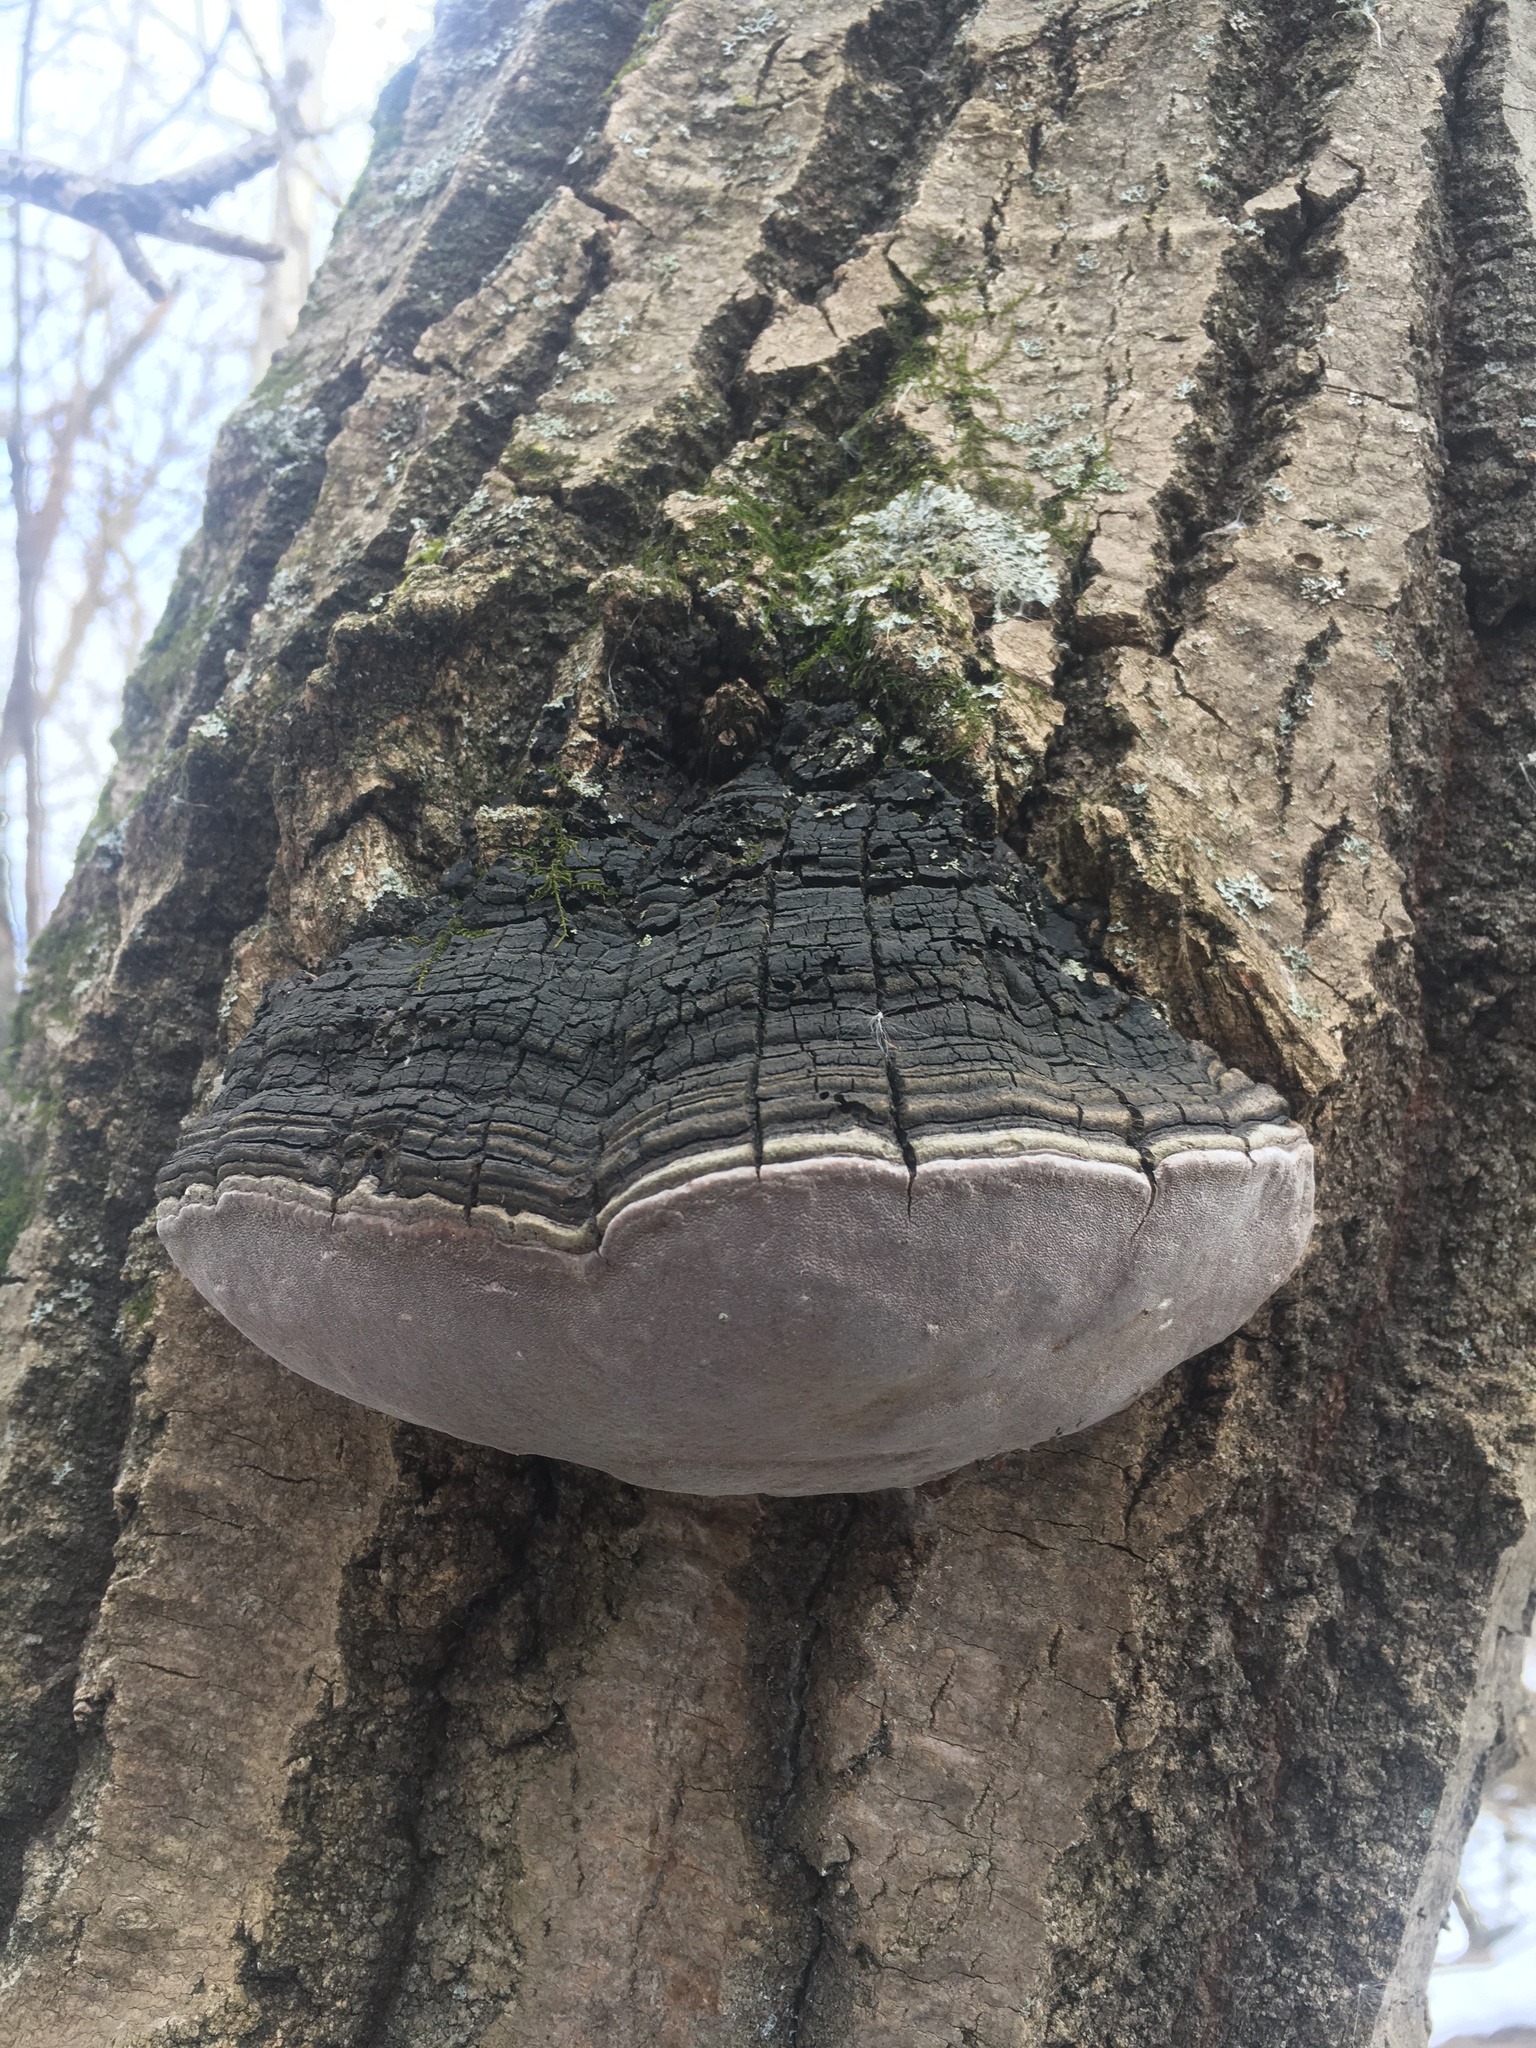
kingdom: Fungi
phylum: Basidiomycota
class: Agaricomycetes
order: Hymenochaetales
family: Hymenochaetaceae
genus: Phellinus
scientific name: Phellinus tremulae
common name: Aspen bracket
